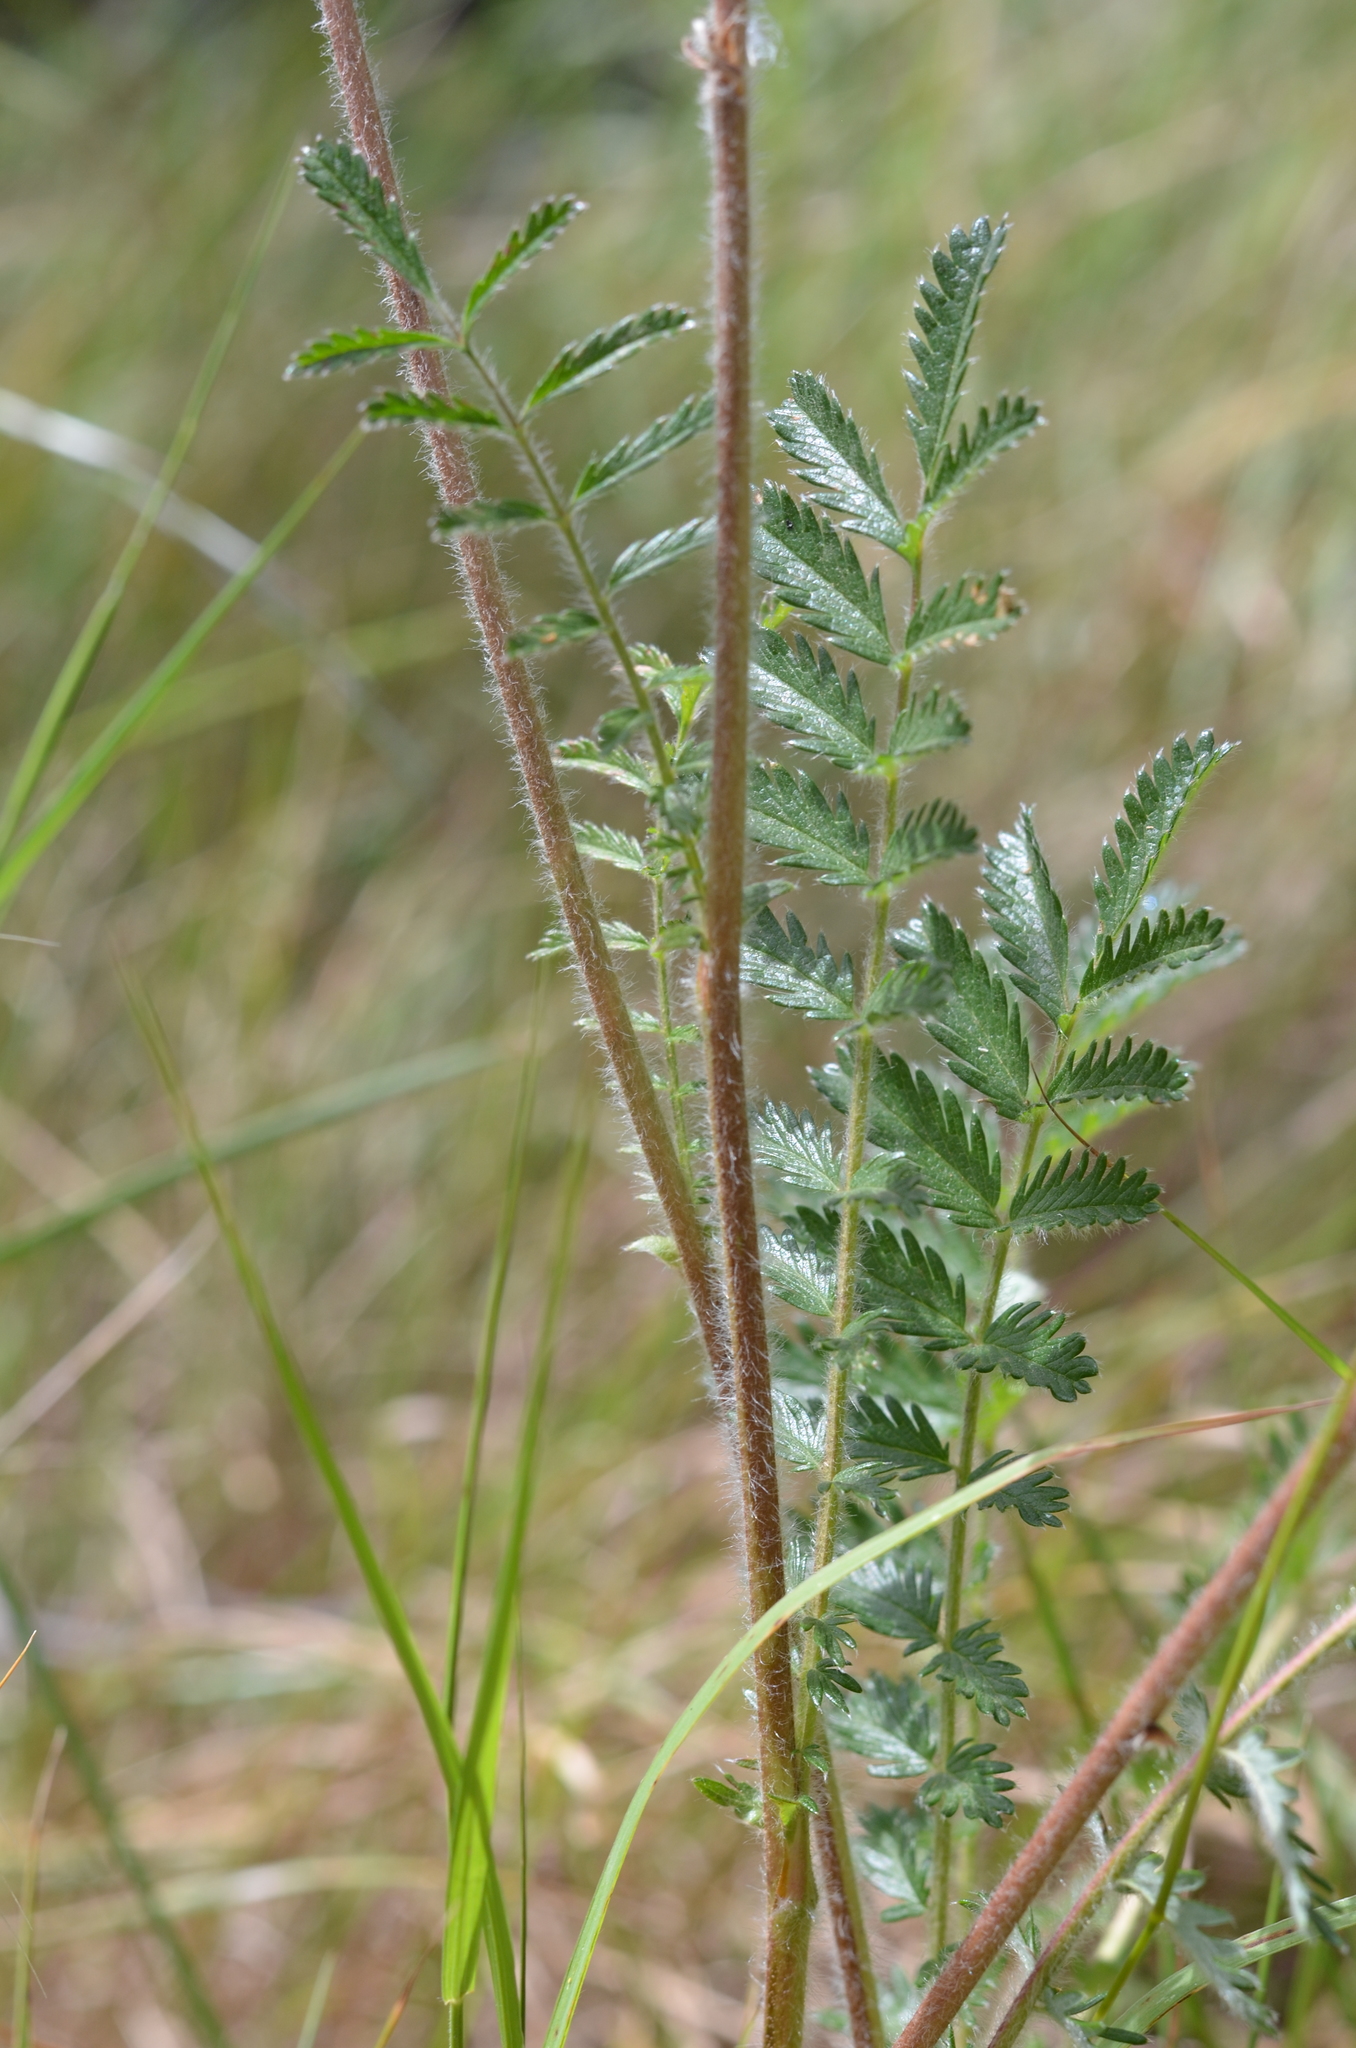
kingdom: Plantae
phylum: Tracheophyta
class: Magnoliopsida
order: Rosales
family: Rosaceae
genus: Acaena
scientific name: Acaena echinata
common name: Sheepbur
